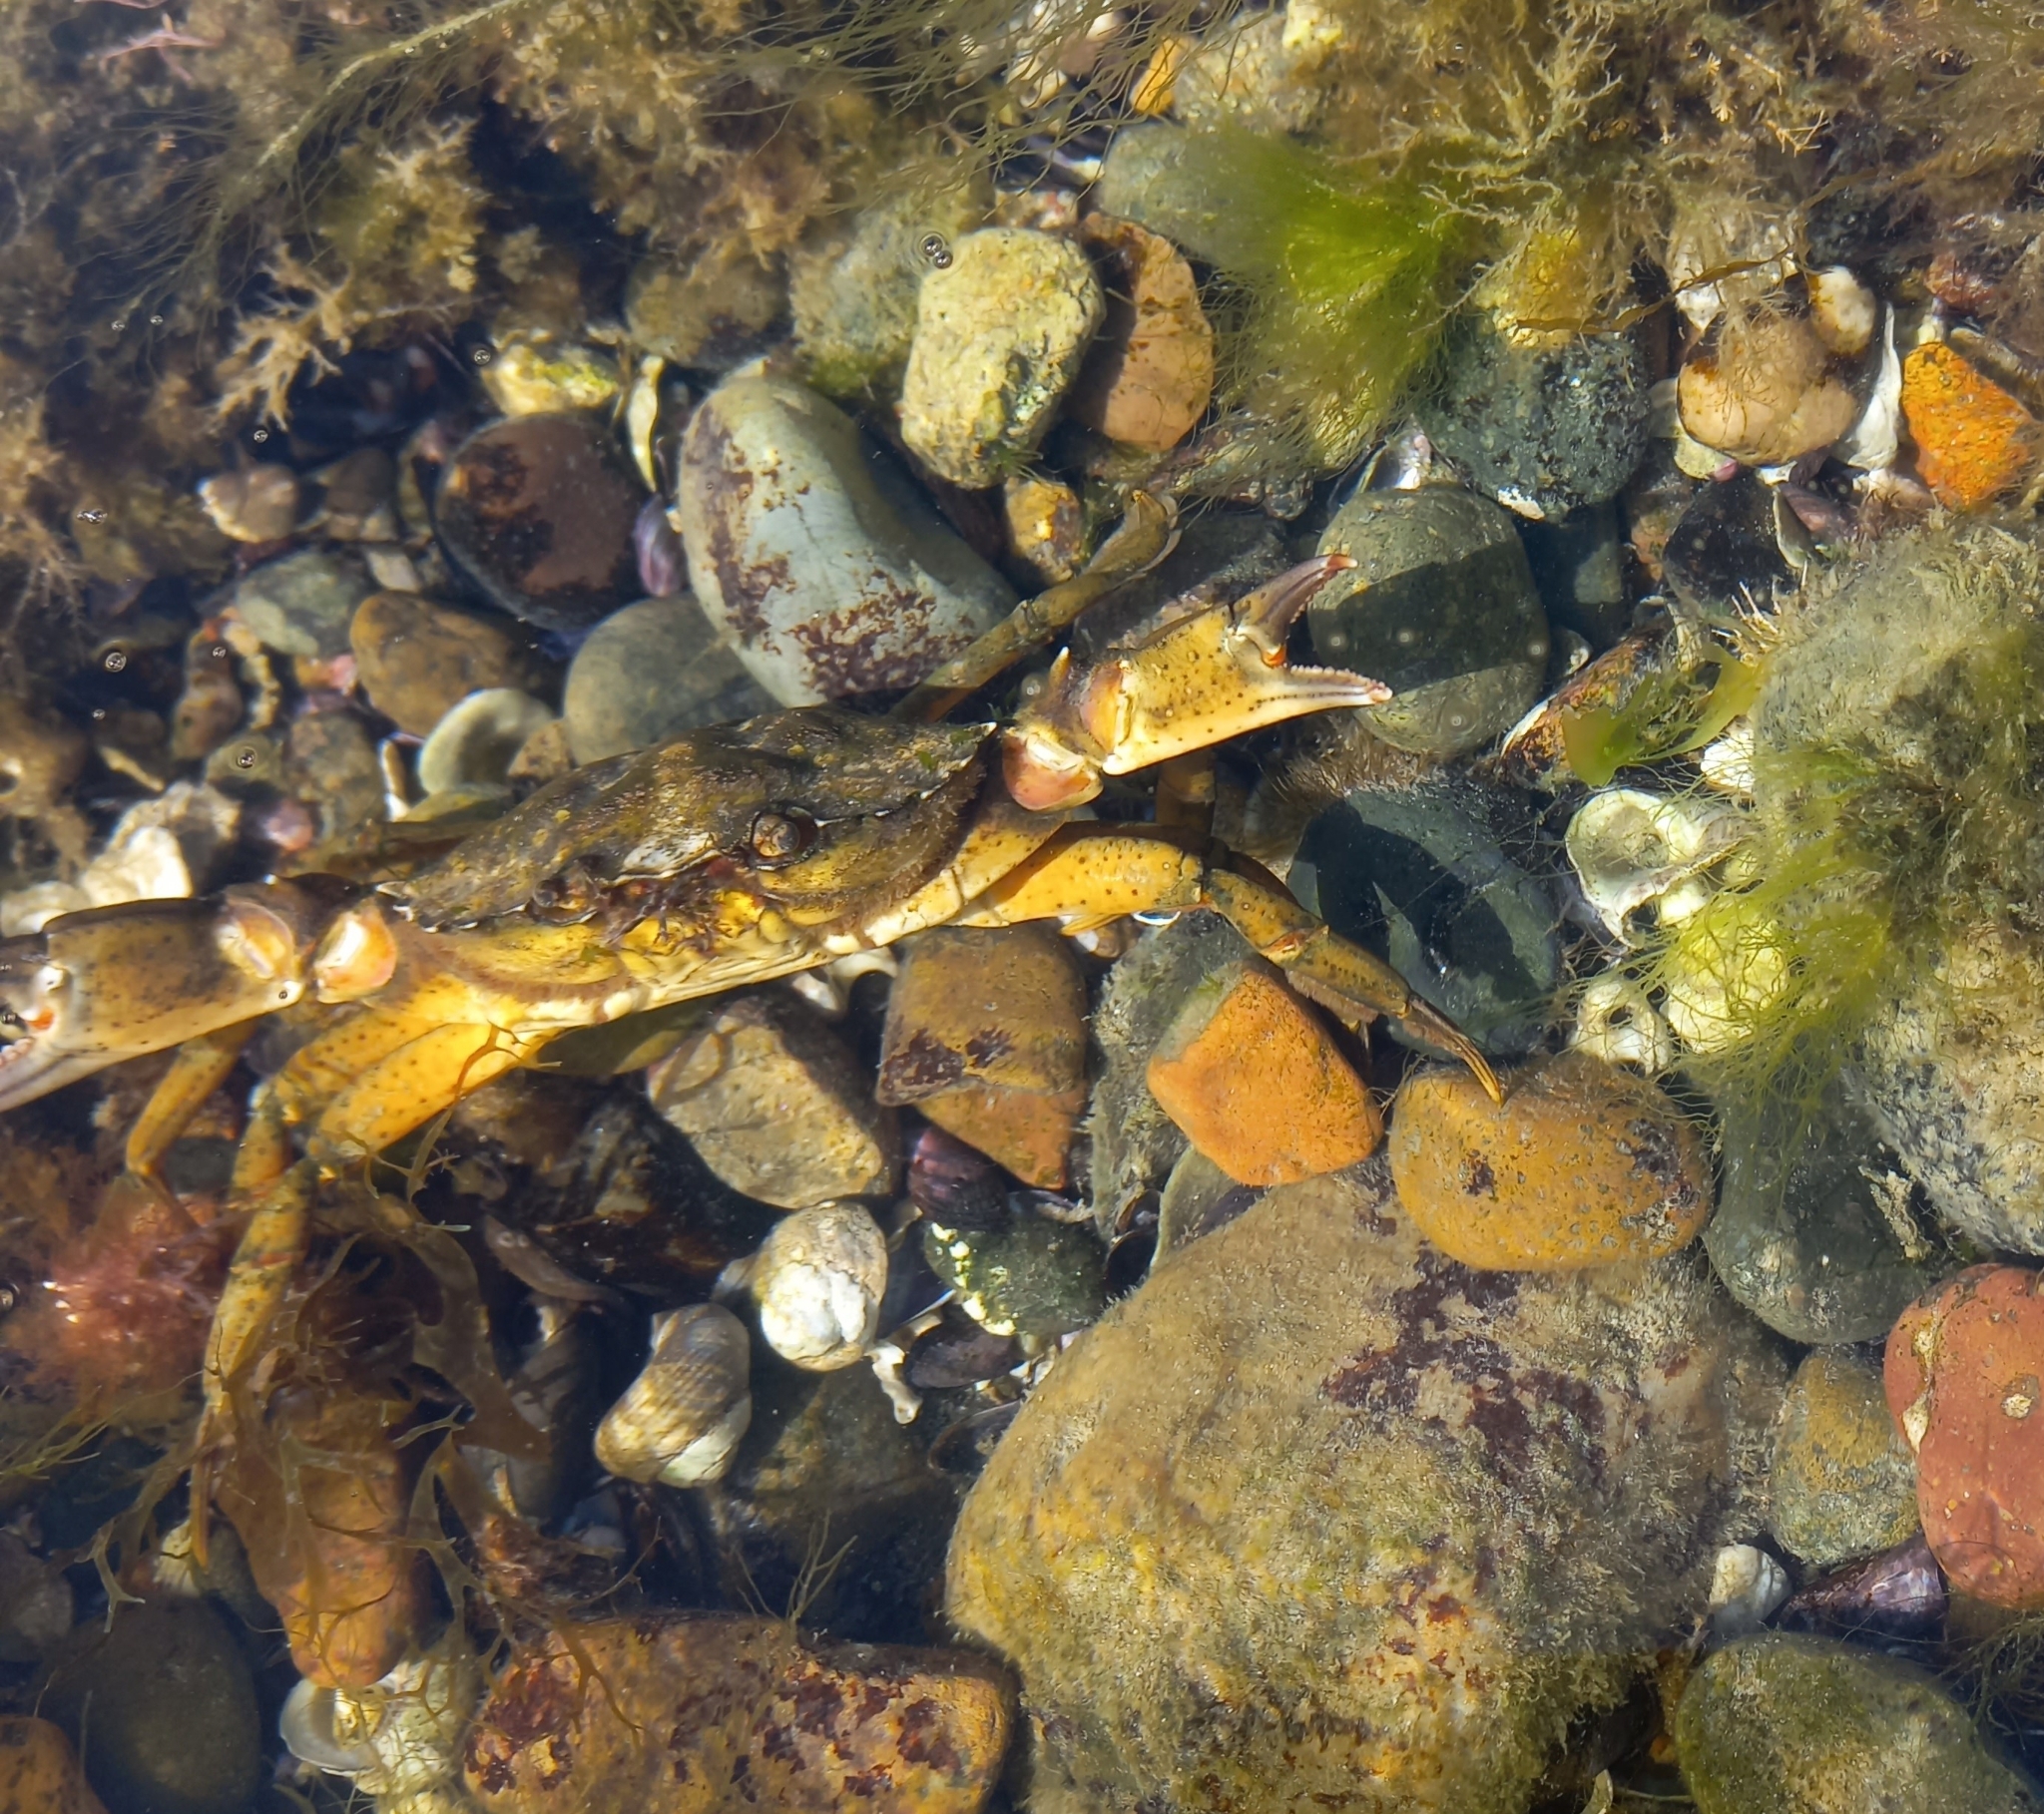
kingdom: Animalia
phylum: Arthropoda
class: Malacostraca
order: Decapoda
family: Carcinidae
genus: Carcinus
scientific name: Carcinus maenas
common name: European green crab
